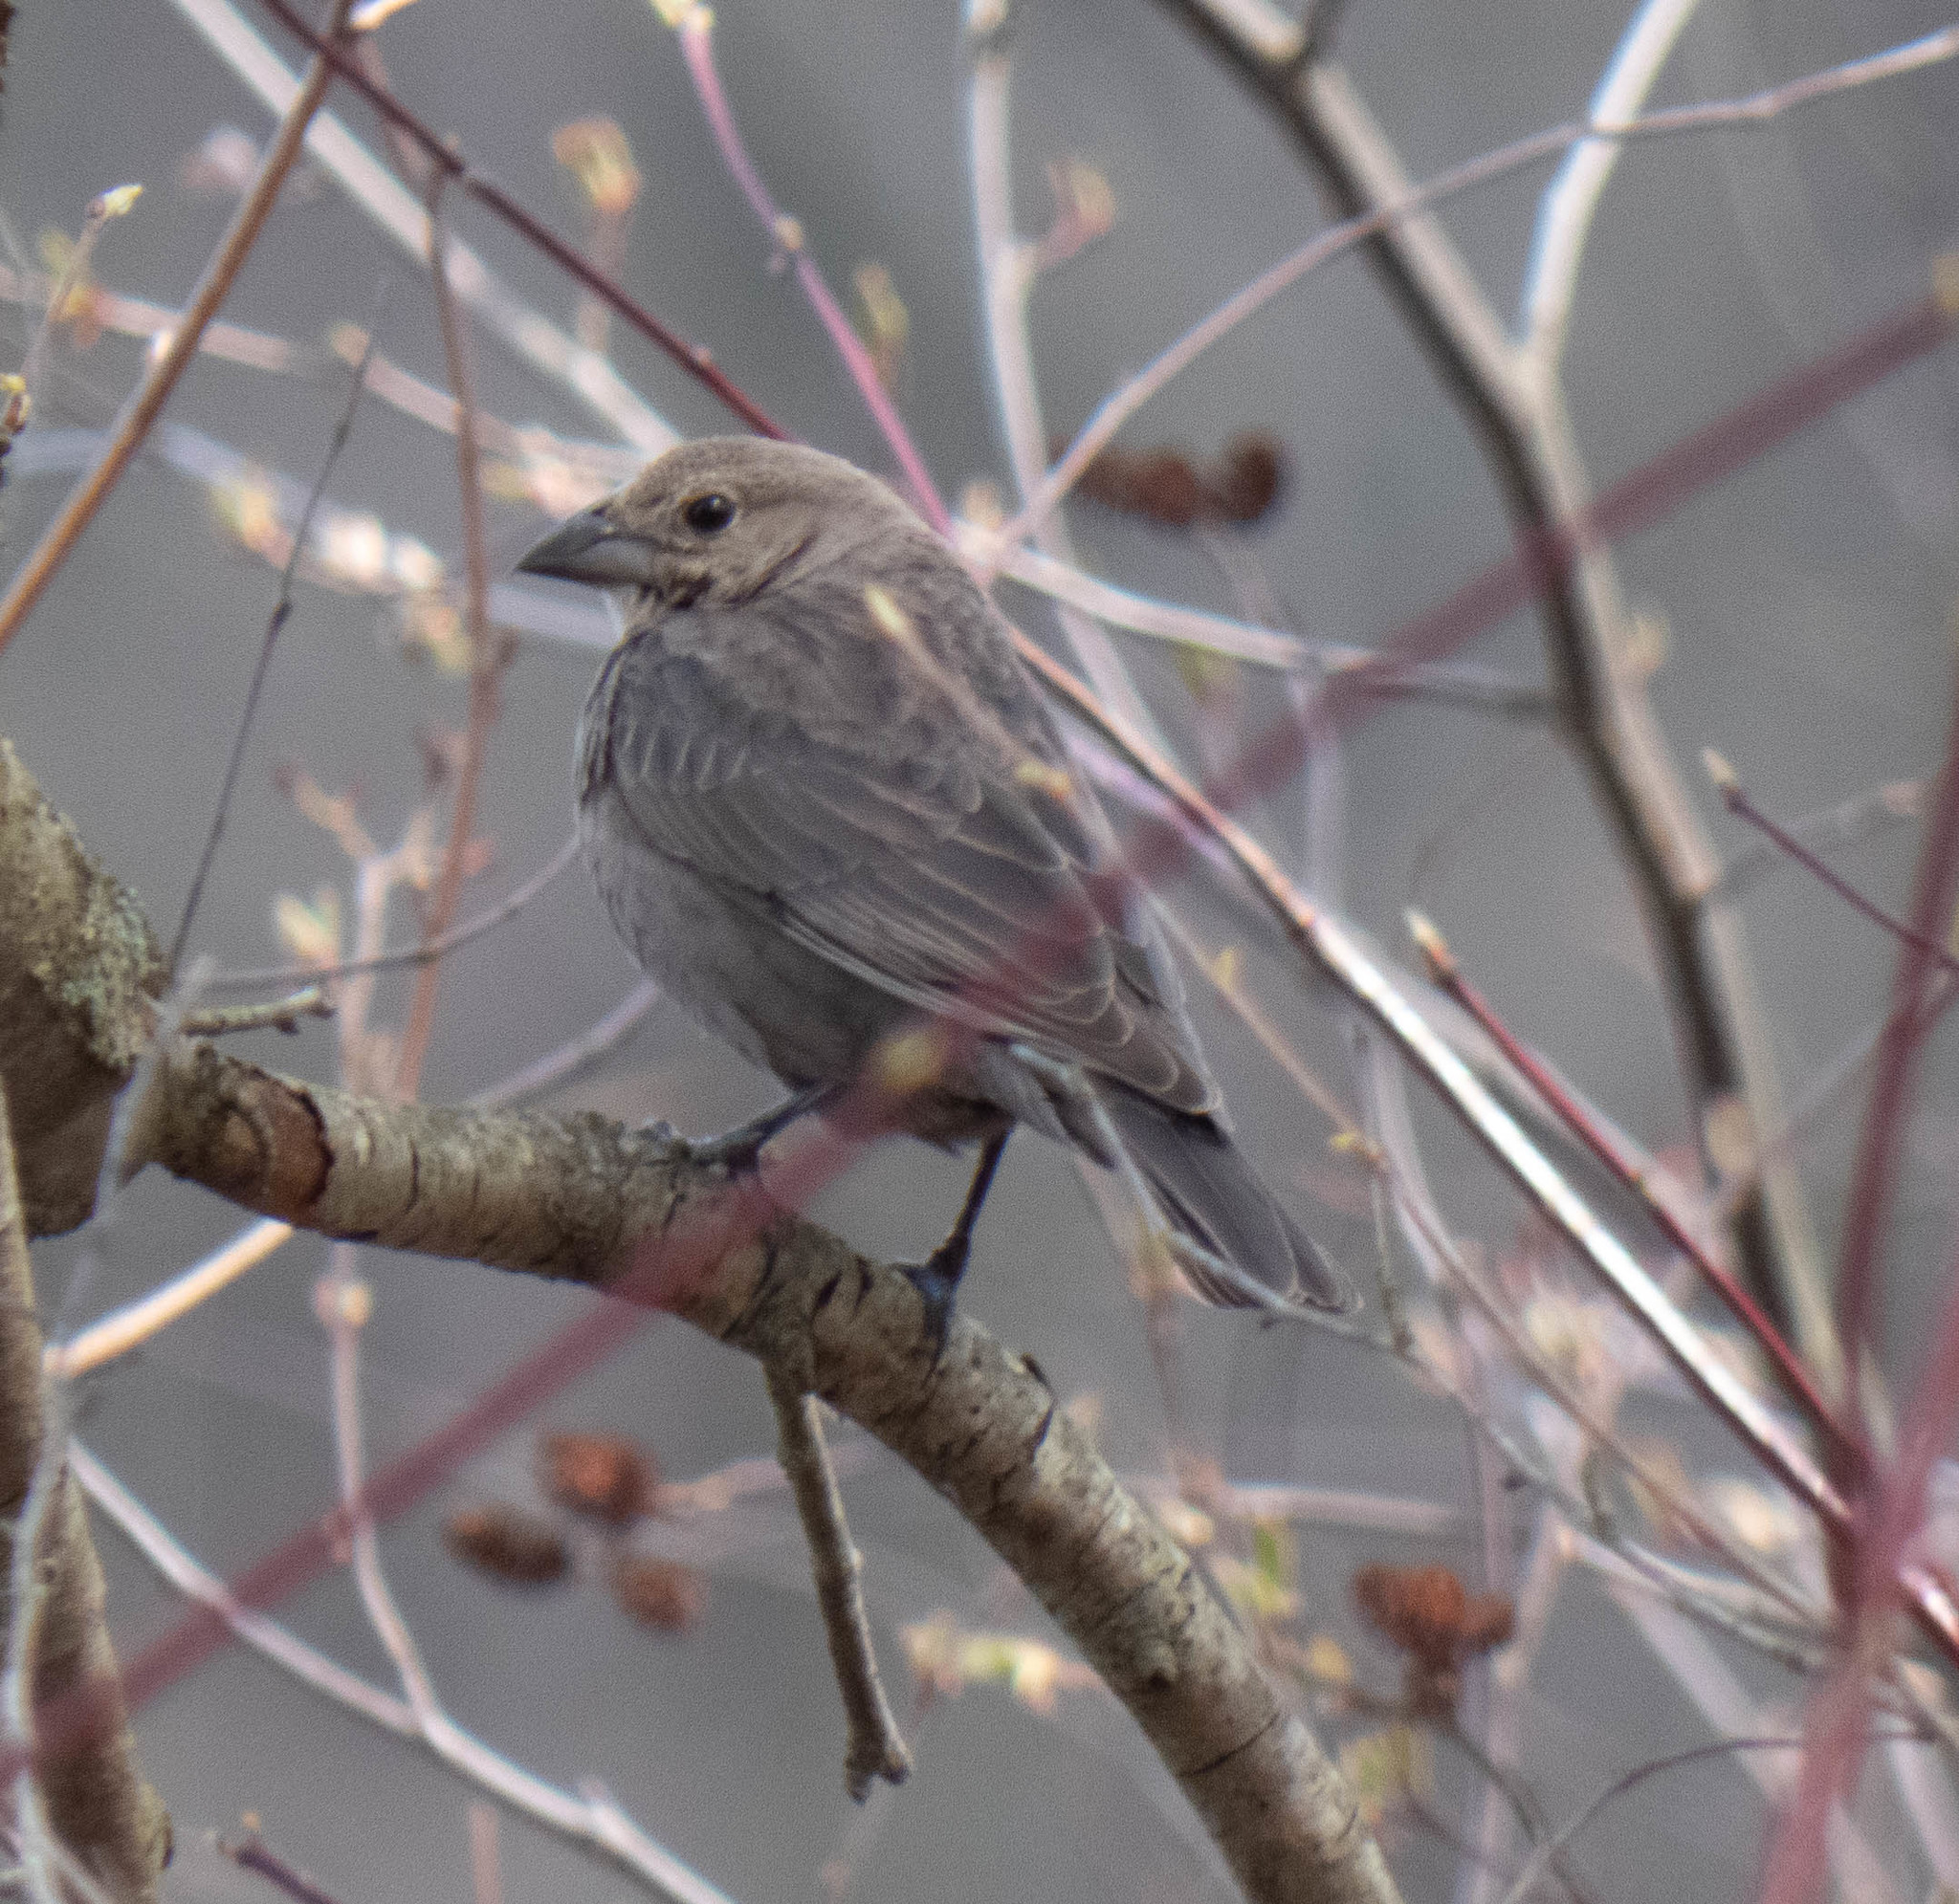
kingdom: Animalia
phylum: Chordata
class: Aves
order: Passeriformes
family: Icteridae
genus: Molothrus
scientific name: Molothrus ater
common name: Brown-headed cowbird
